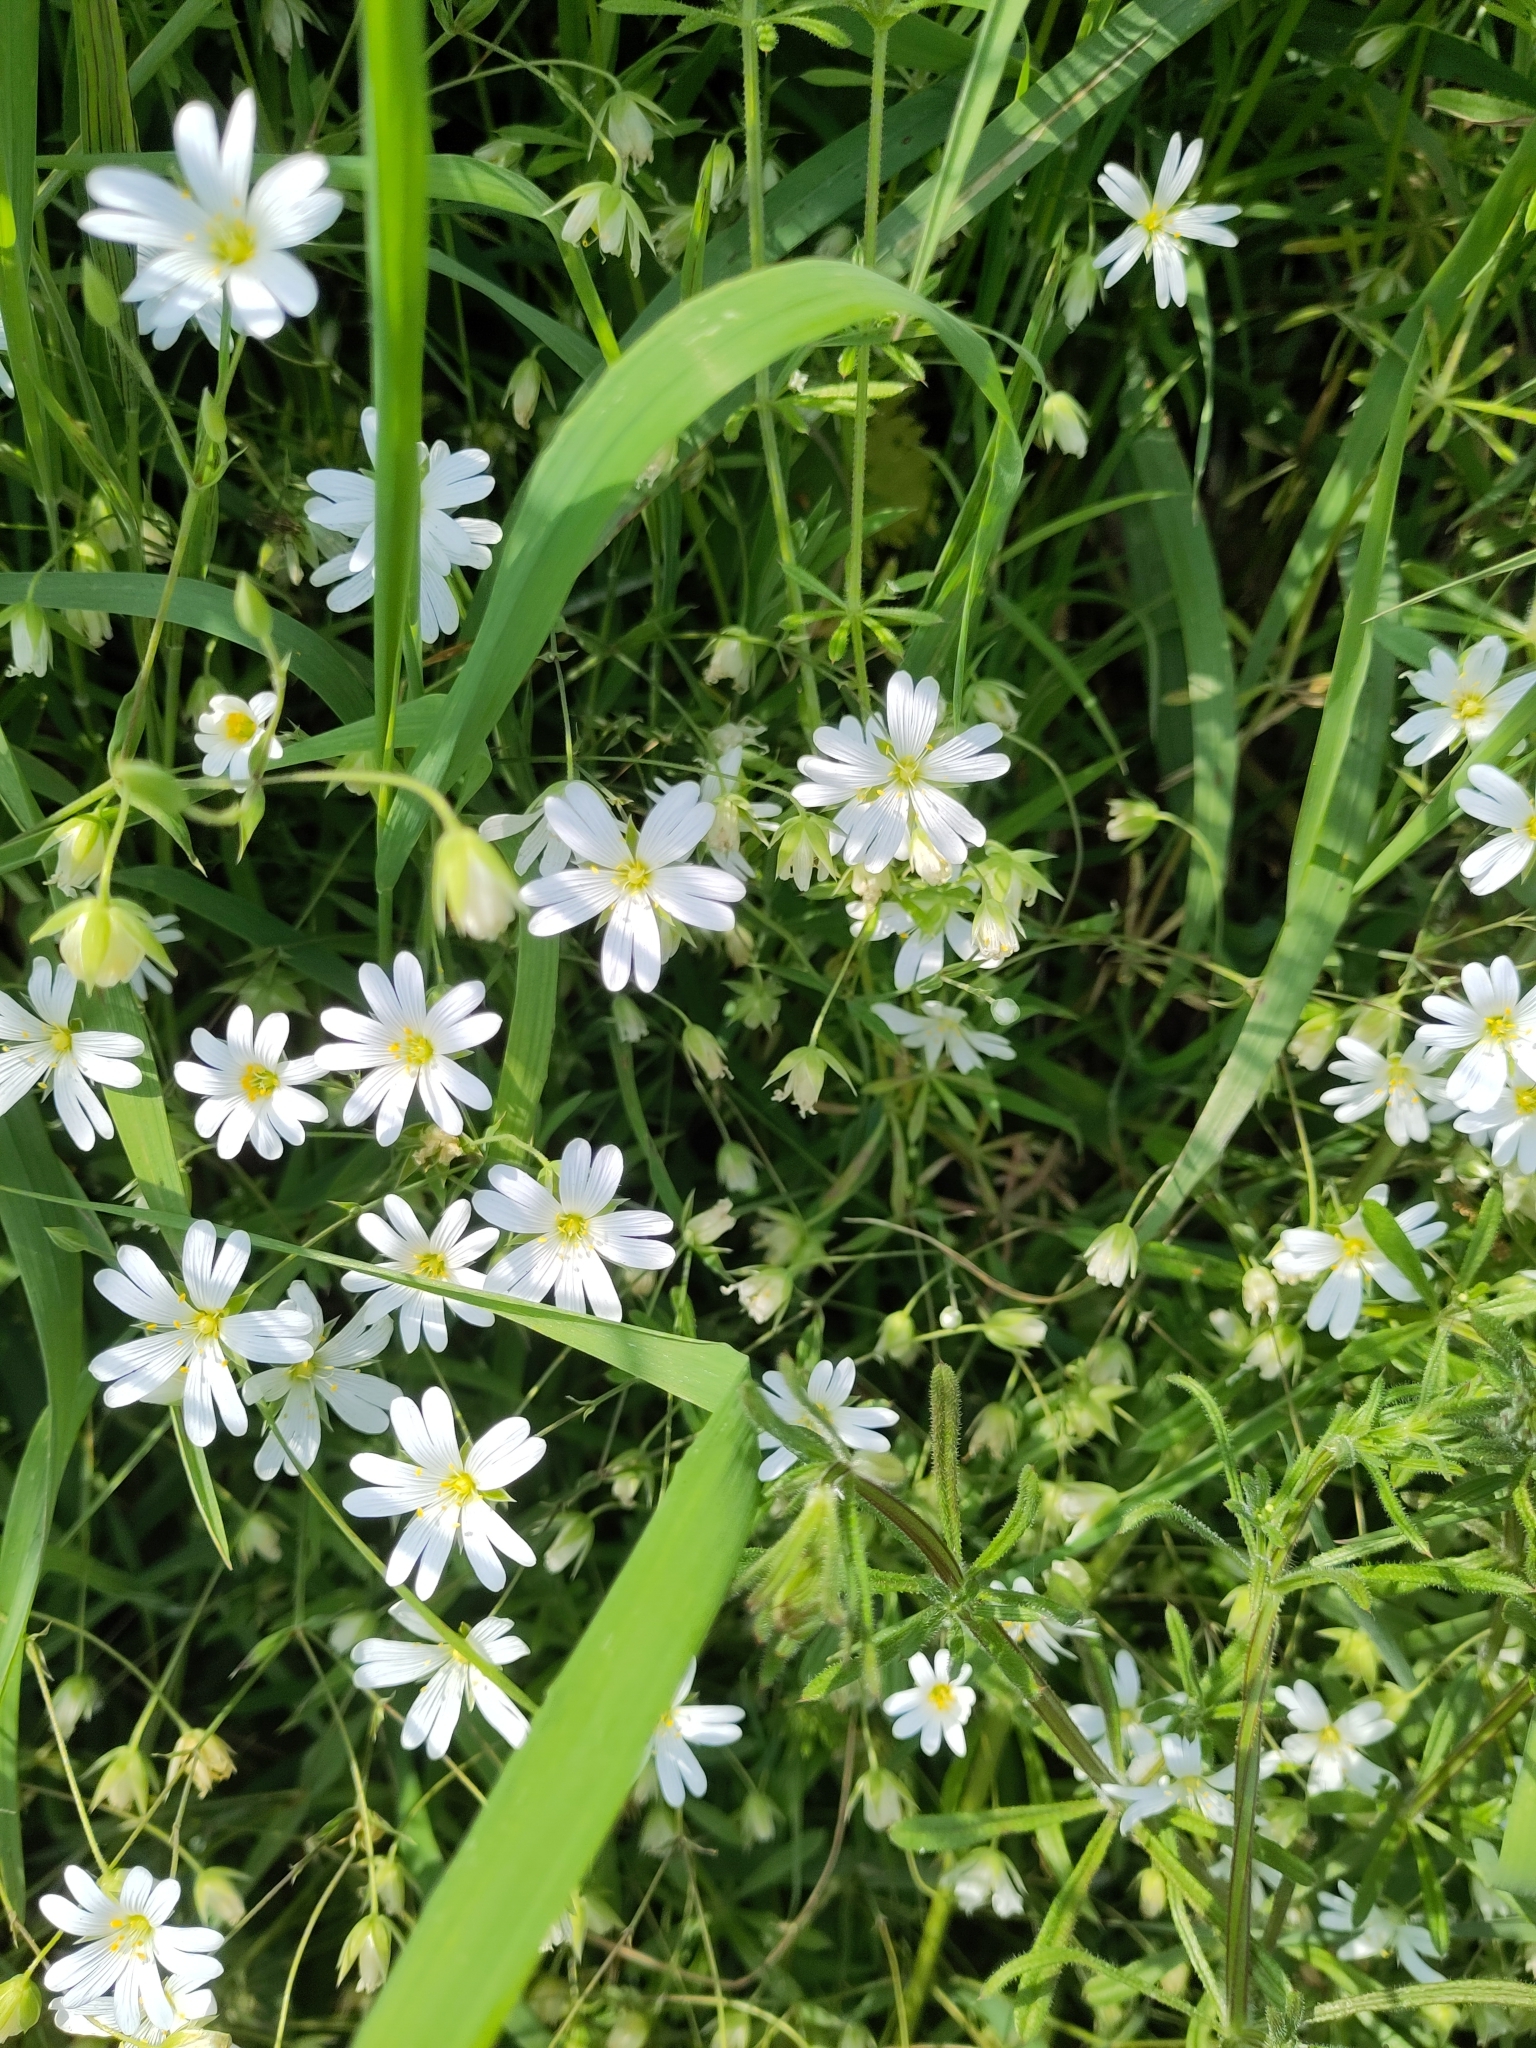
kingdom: Plantae
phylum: Tracheophyta
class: Magnoliopsida
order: Caryophyllales
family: Caryophyllaceae
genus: Rabelera
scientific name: Rabelera holostea
